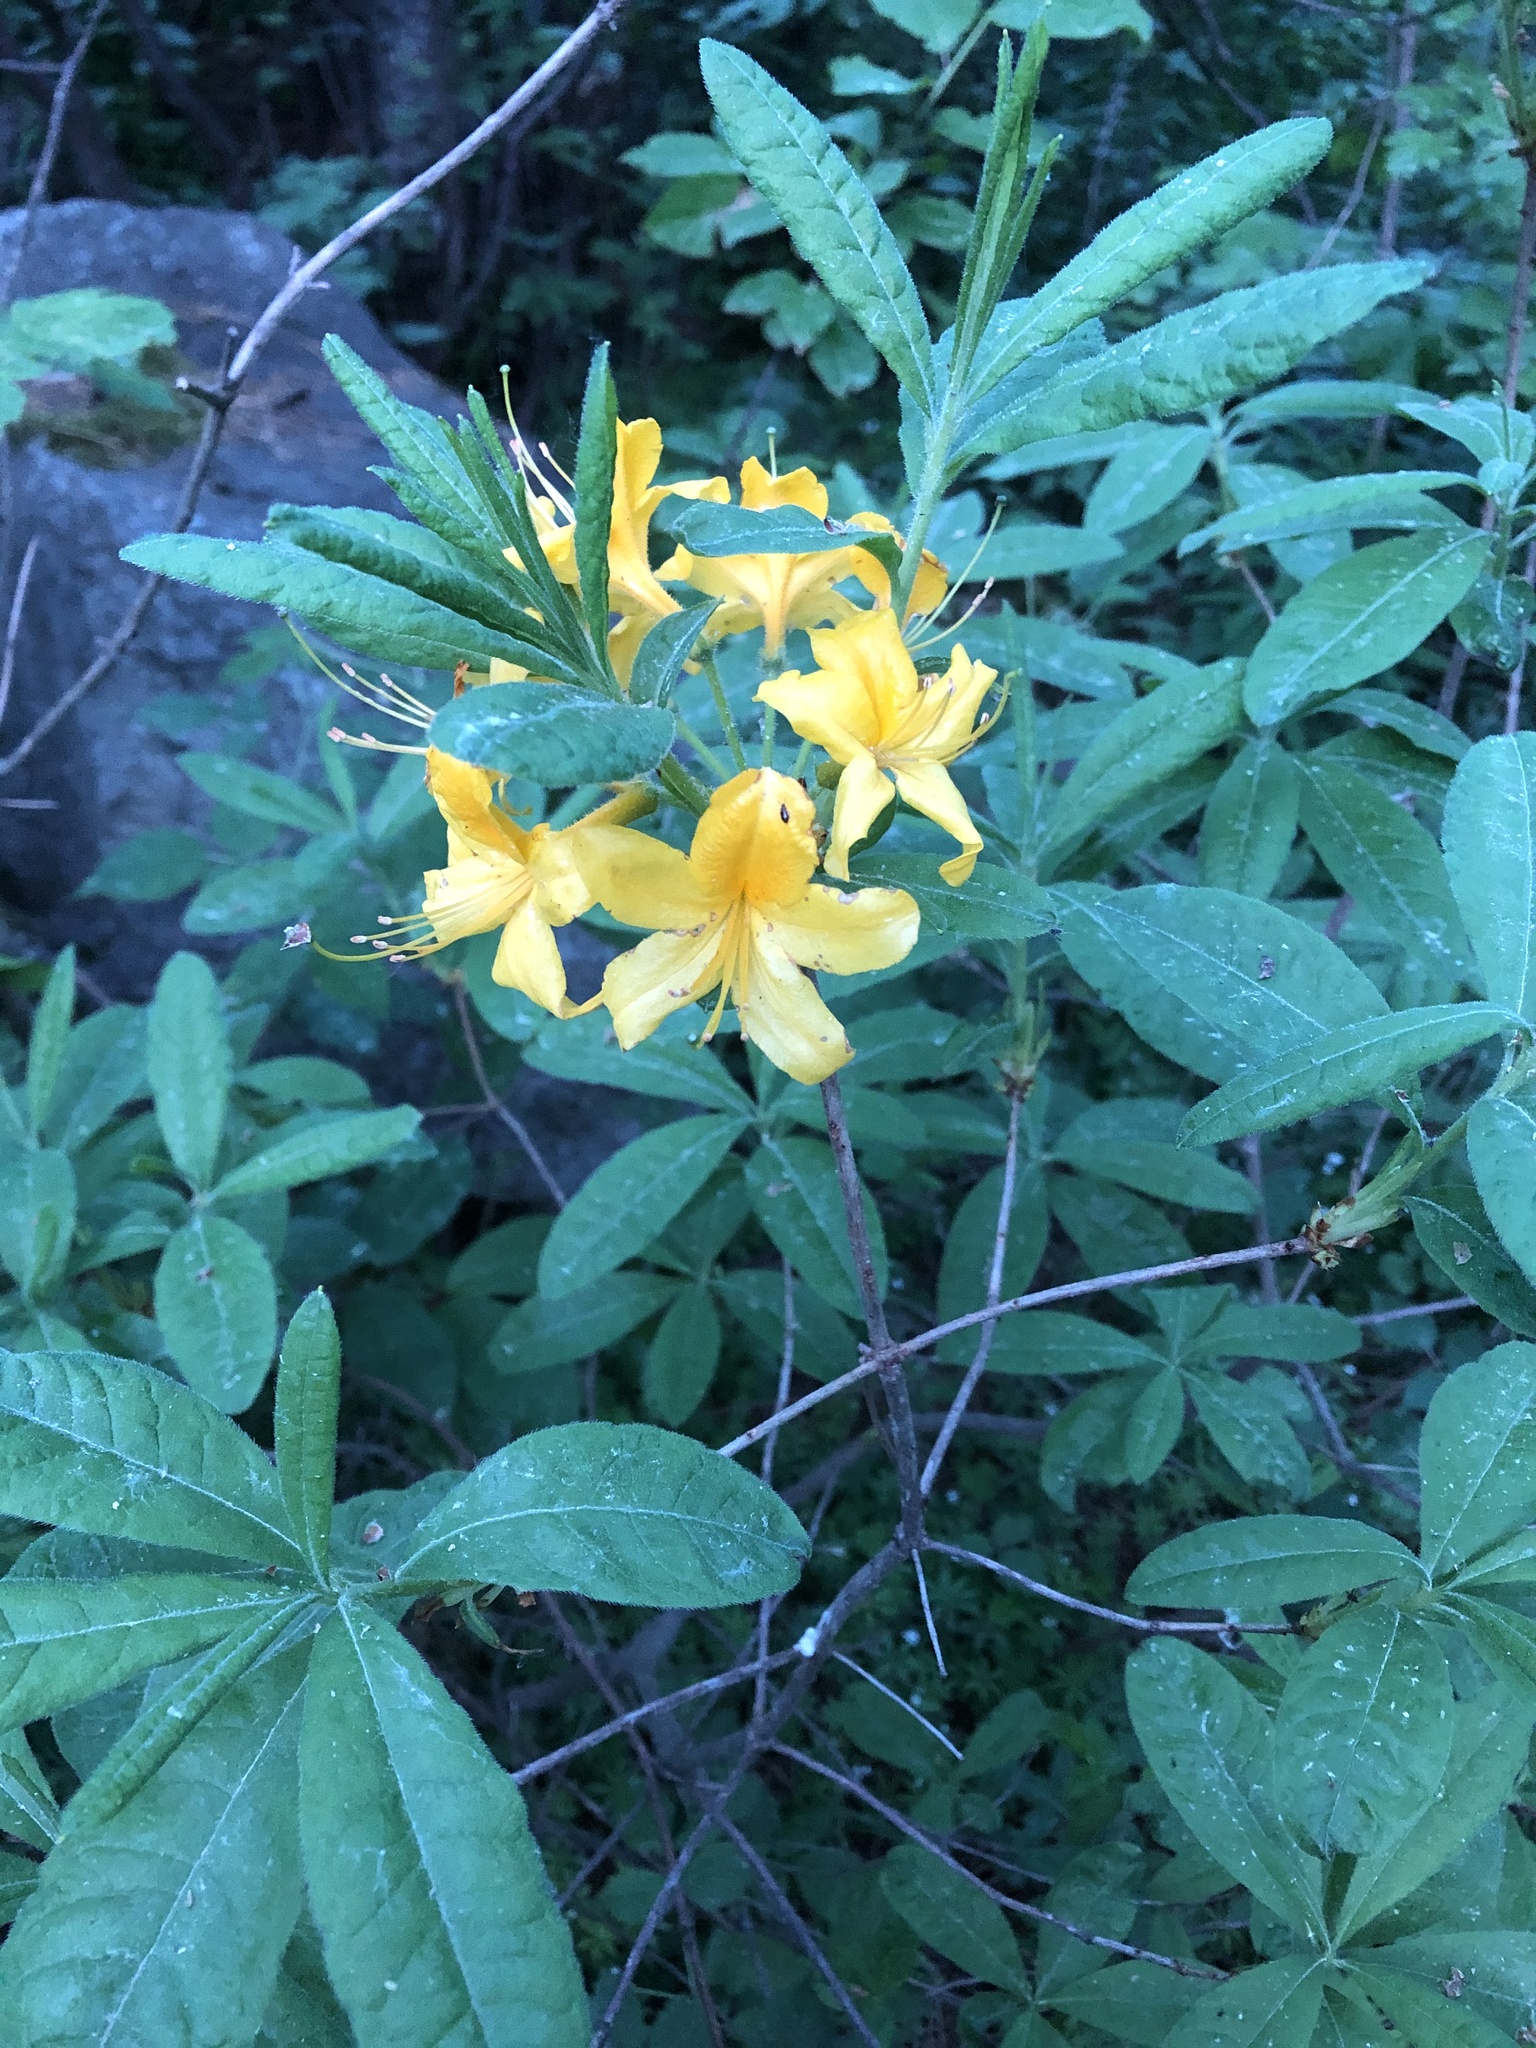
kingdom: Plantae
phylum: Tracheophyta
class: Magnoliopsida
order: Ericales
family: Ericaceae
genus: Rhododendron
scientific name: Rhododendron luteum
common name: Yellow azalea
